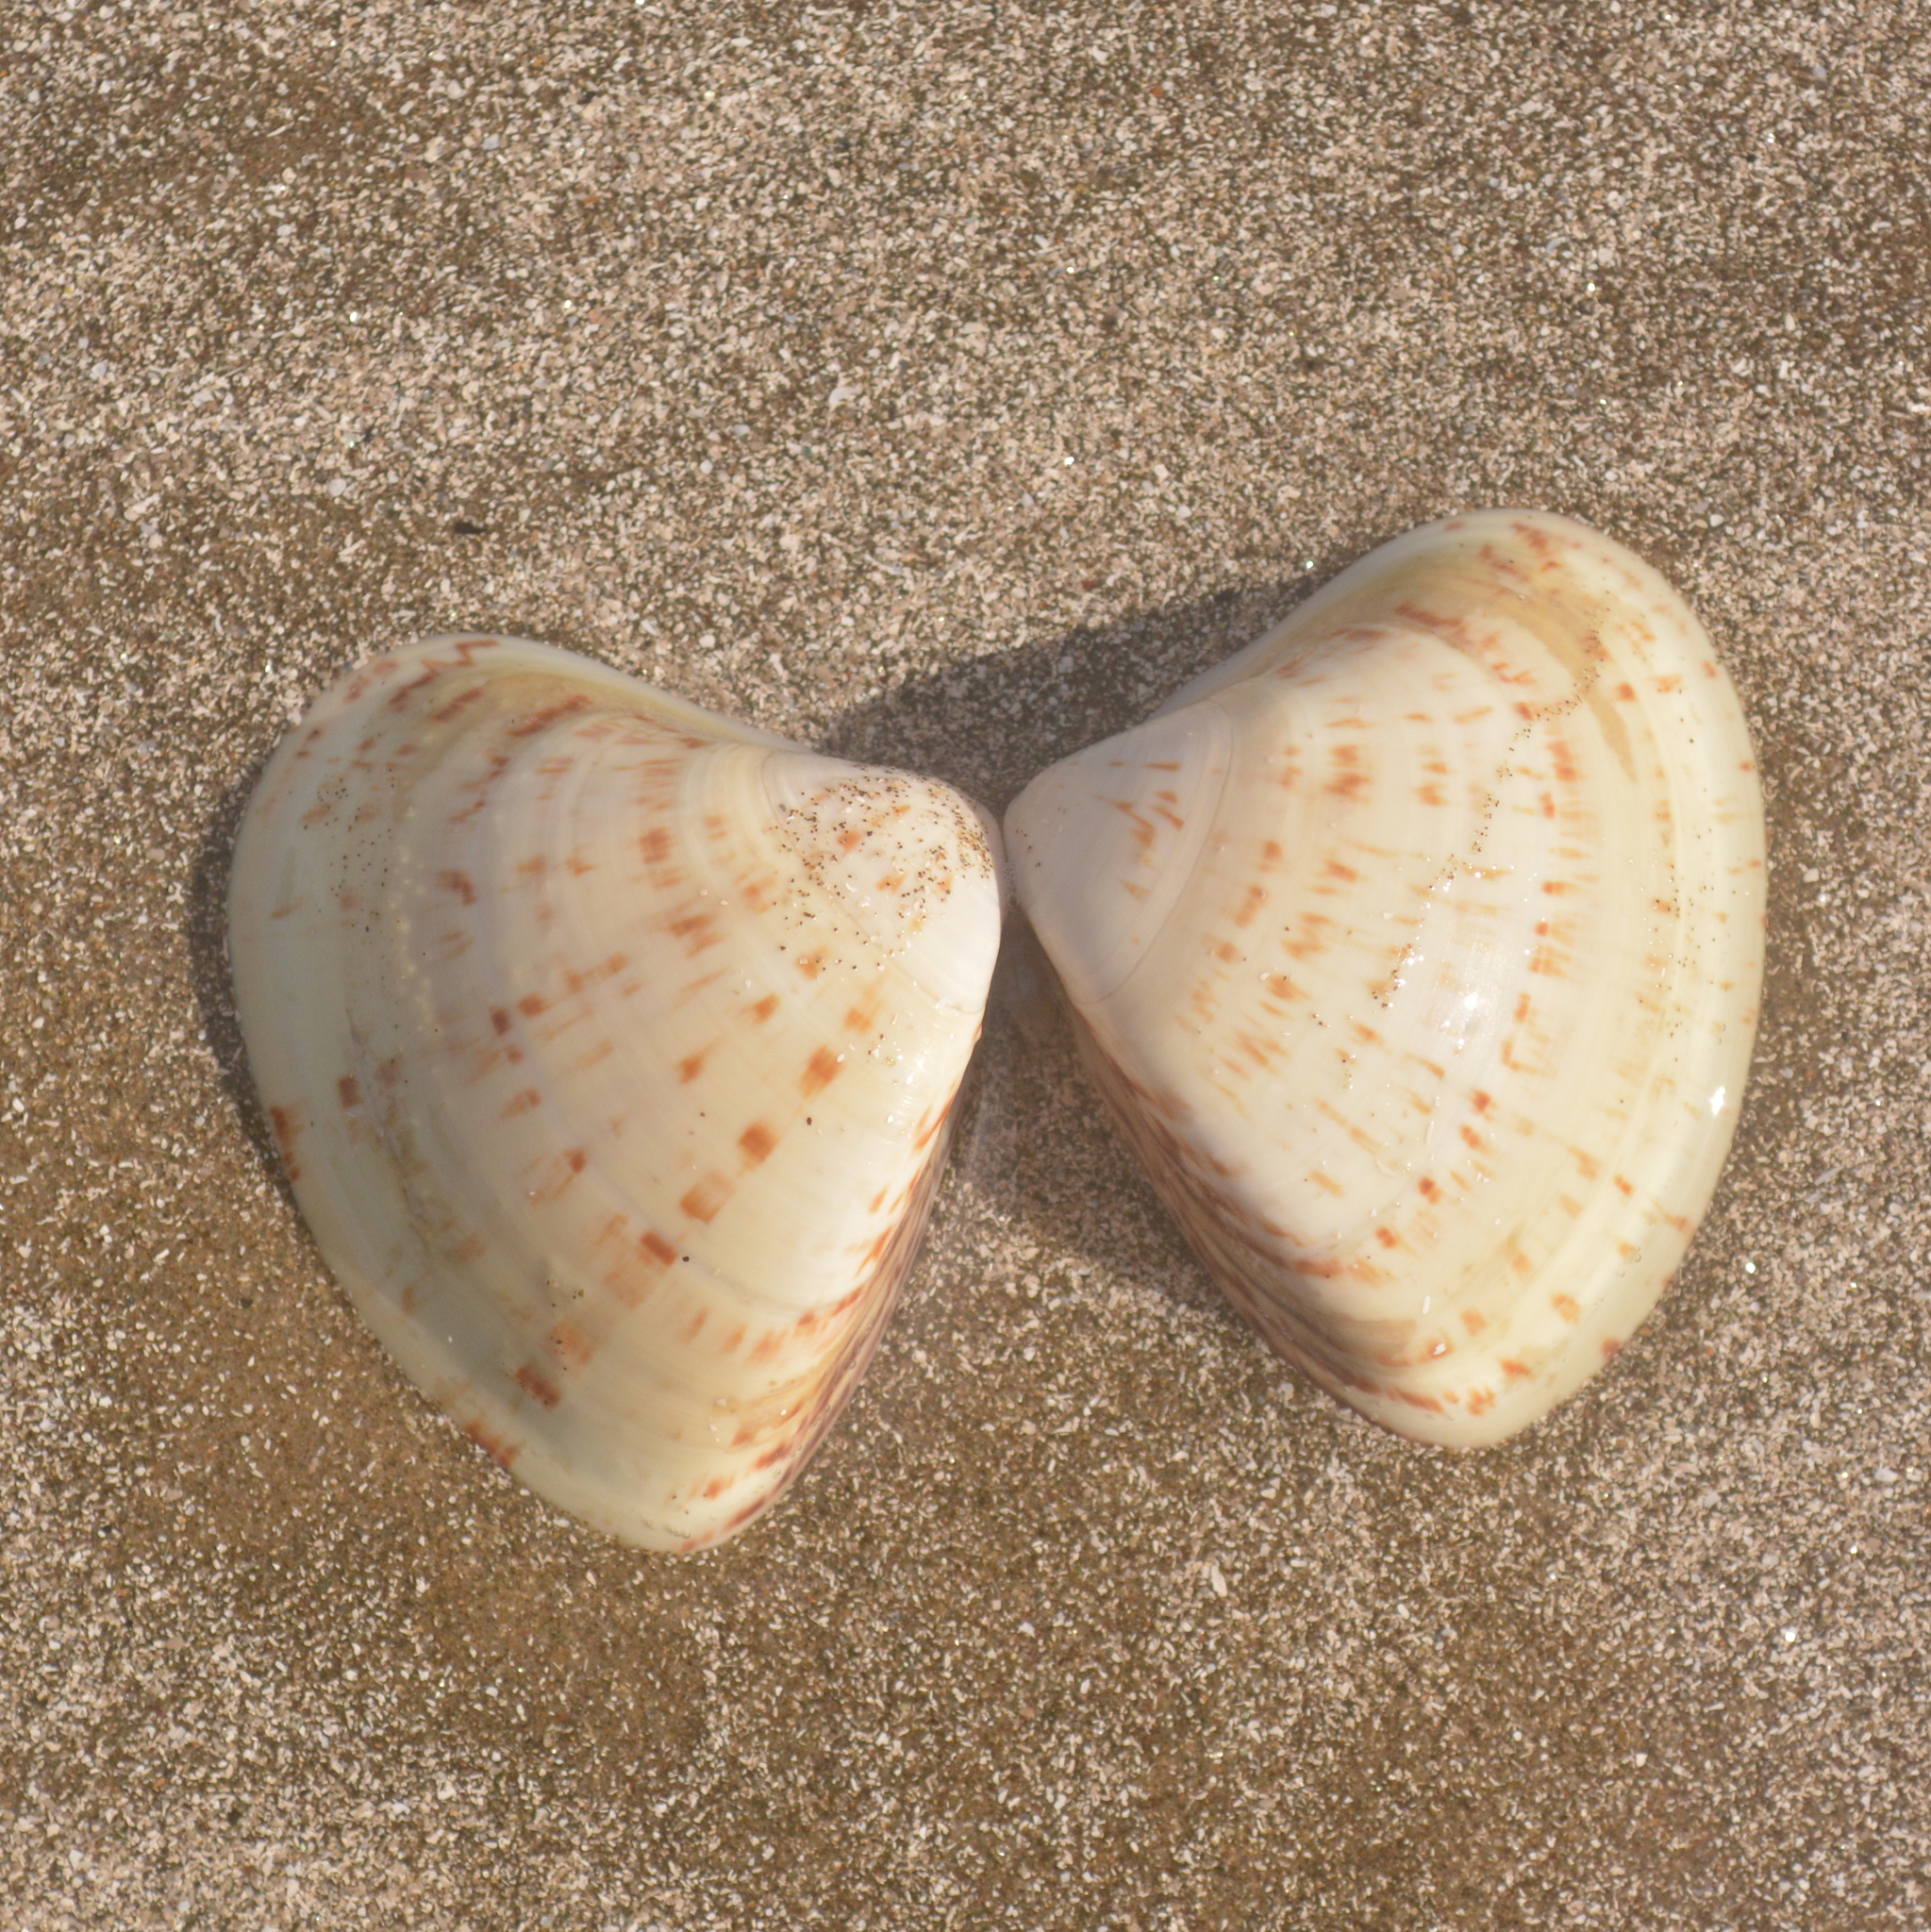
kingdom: Animalia
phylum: Mollusca
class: Bivalvia
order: Venerida
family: Veneridae
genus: Tivela
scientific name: Tivela zonaria
